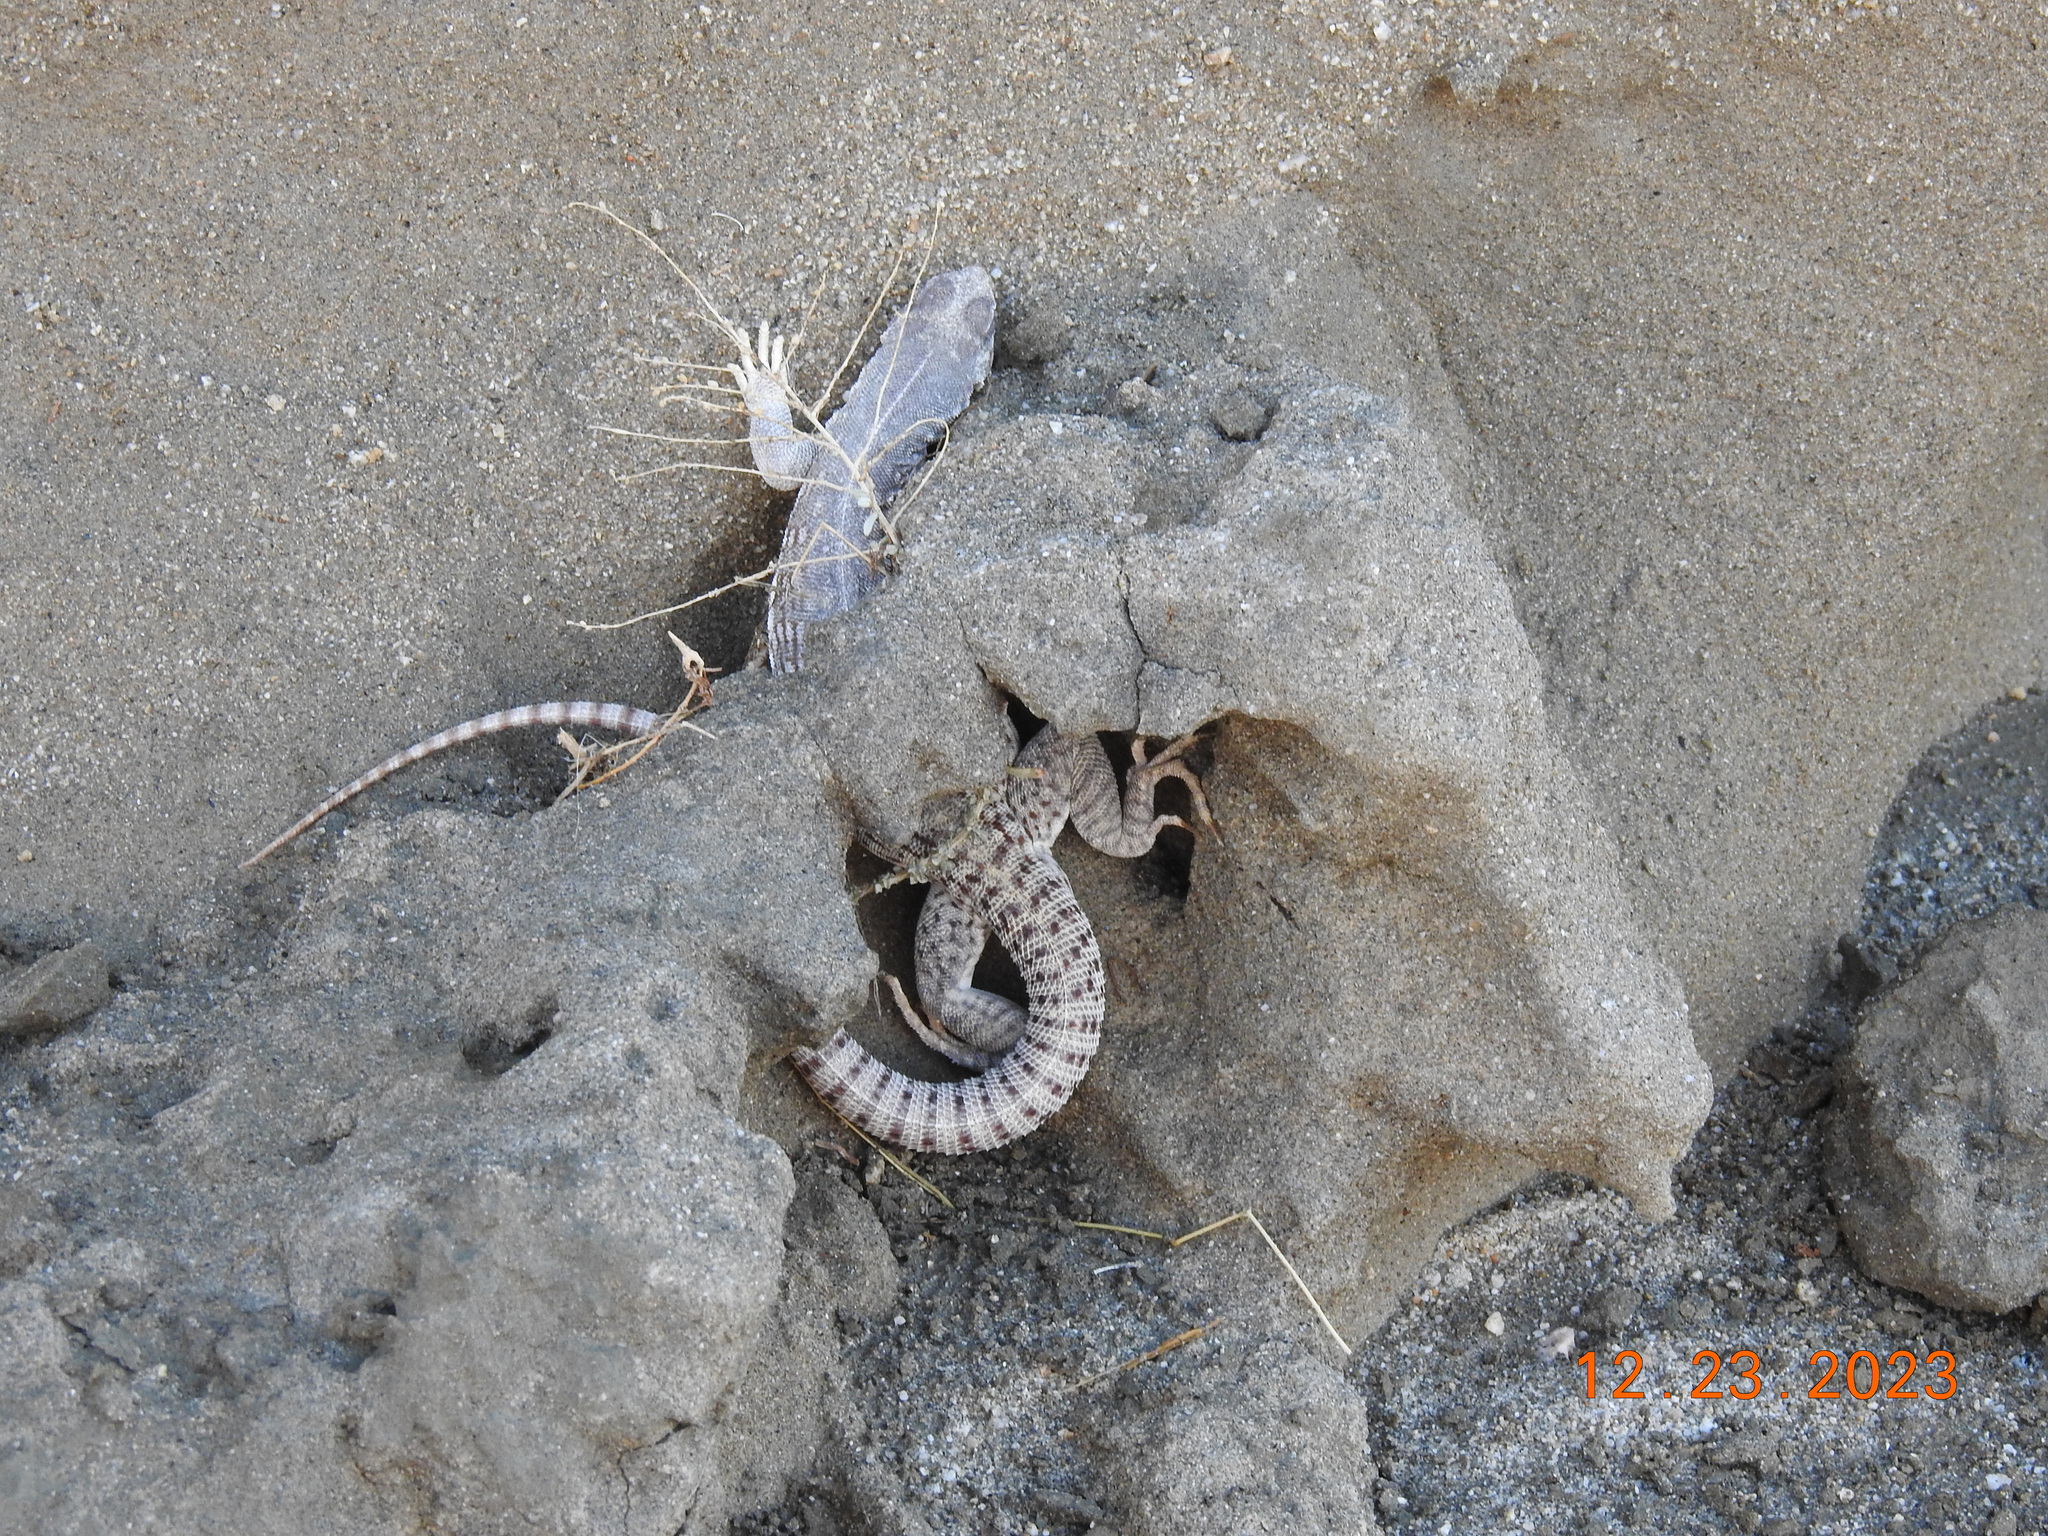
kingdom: Animalia
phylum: Chordata
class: Squamata
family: Iguanidae
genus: Dipsosaurus
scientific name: Dipsosaurus dorsalis
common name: Desert iguana
